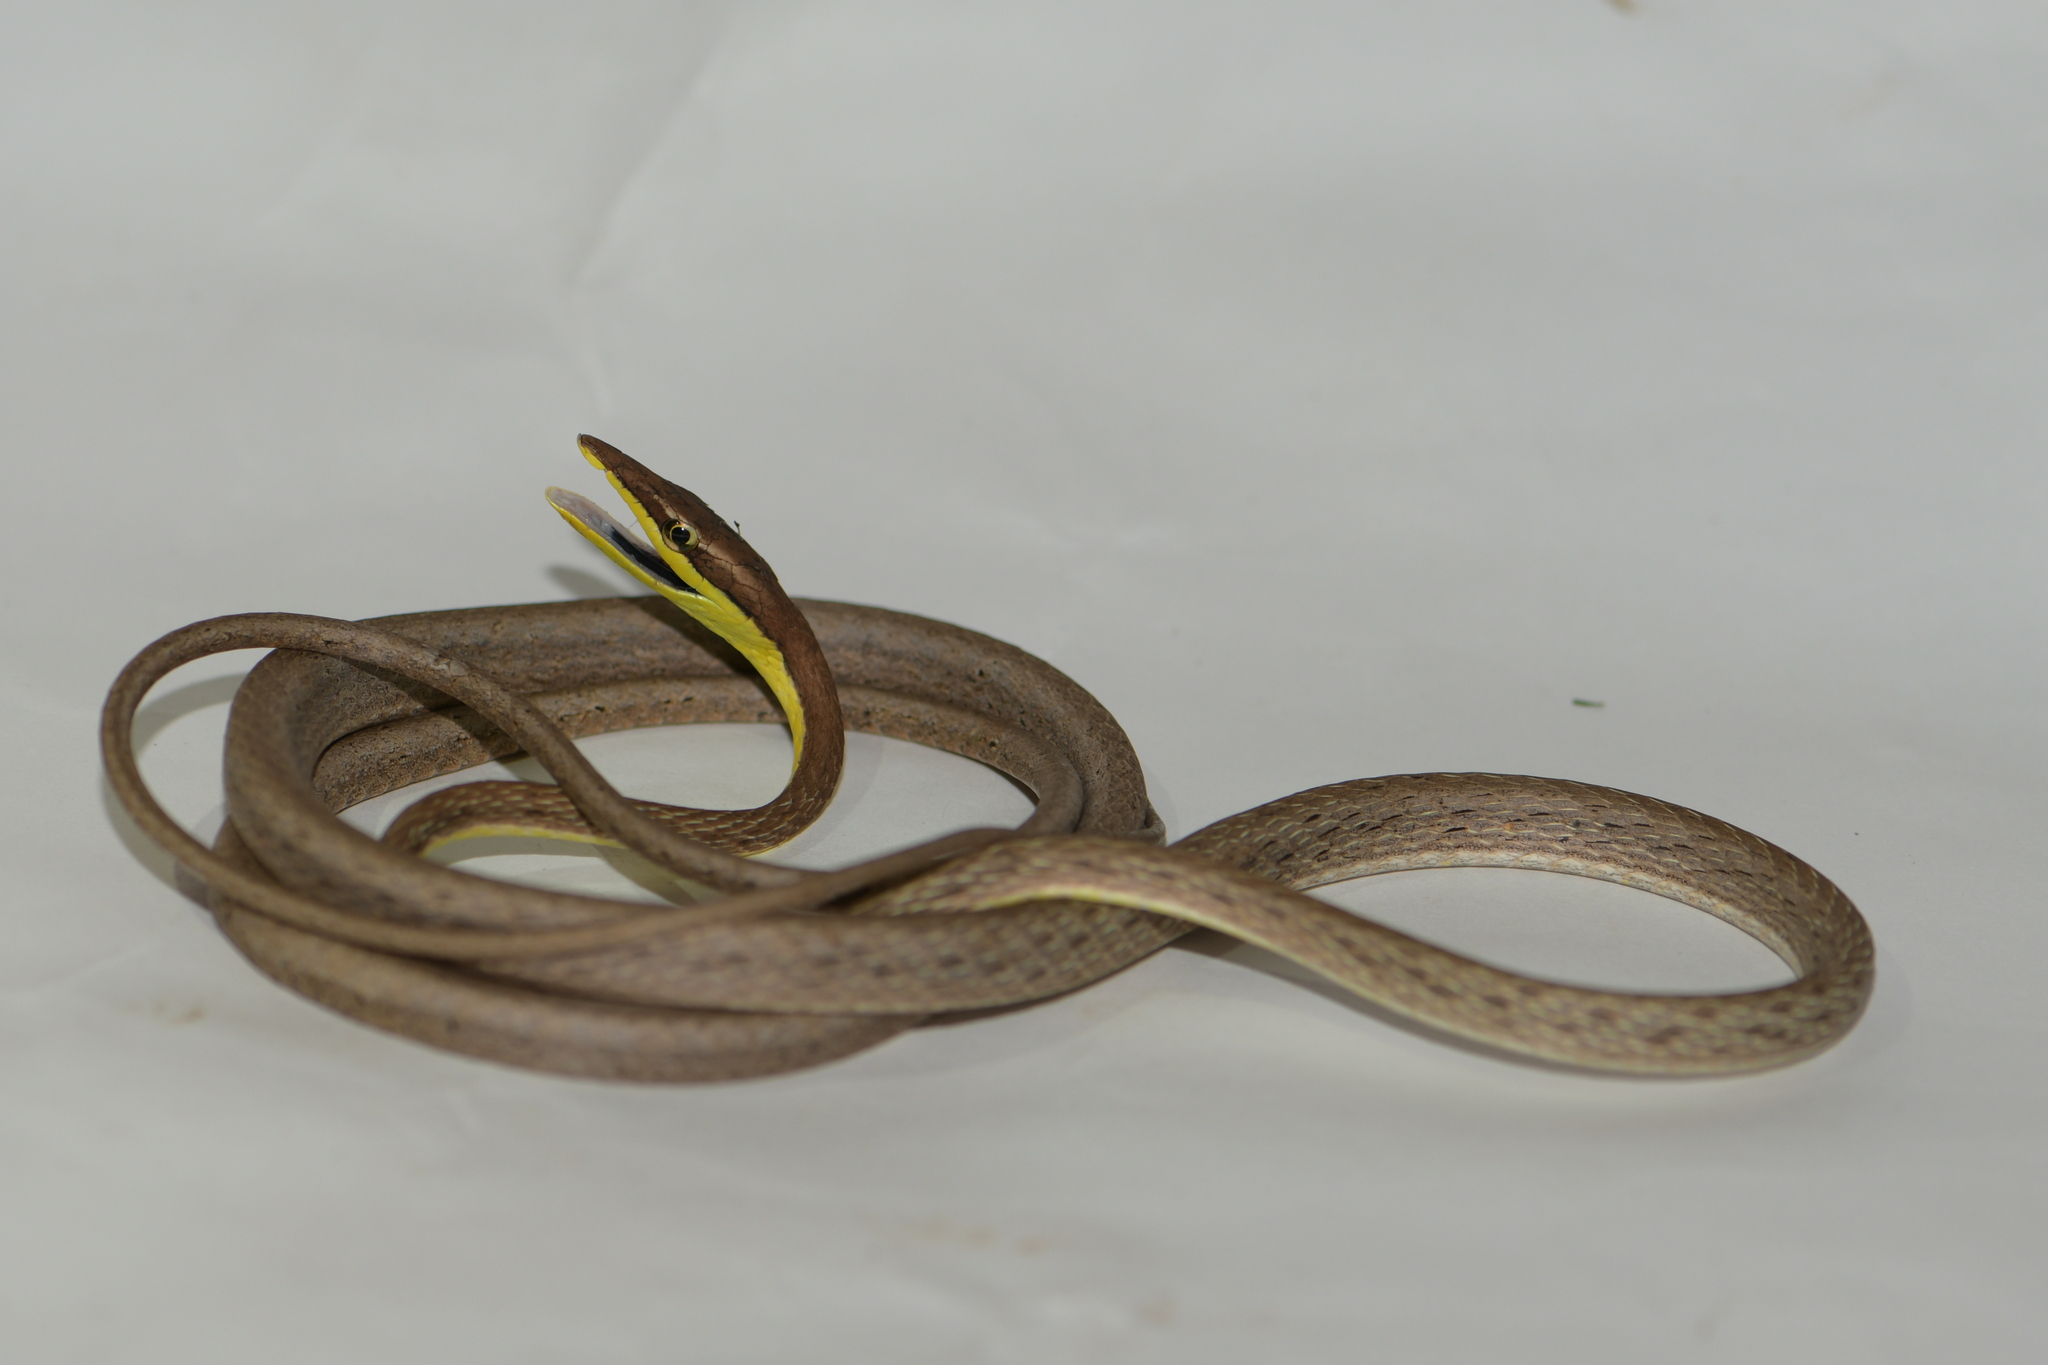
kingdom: Animalia
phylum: Chordata
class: Squamata
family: Colubridae
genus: Oxybelis
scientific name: Oxybelis microphthalmus
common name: Thrornscrub vine snake
